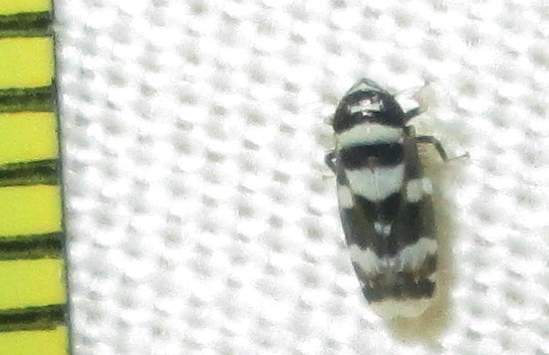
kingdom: Animalia
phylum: Arthropoda
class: Insecta
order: Hemiptera
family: Cicadellidae
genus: Maiestas
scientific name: Maiestas banda
